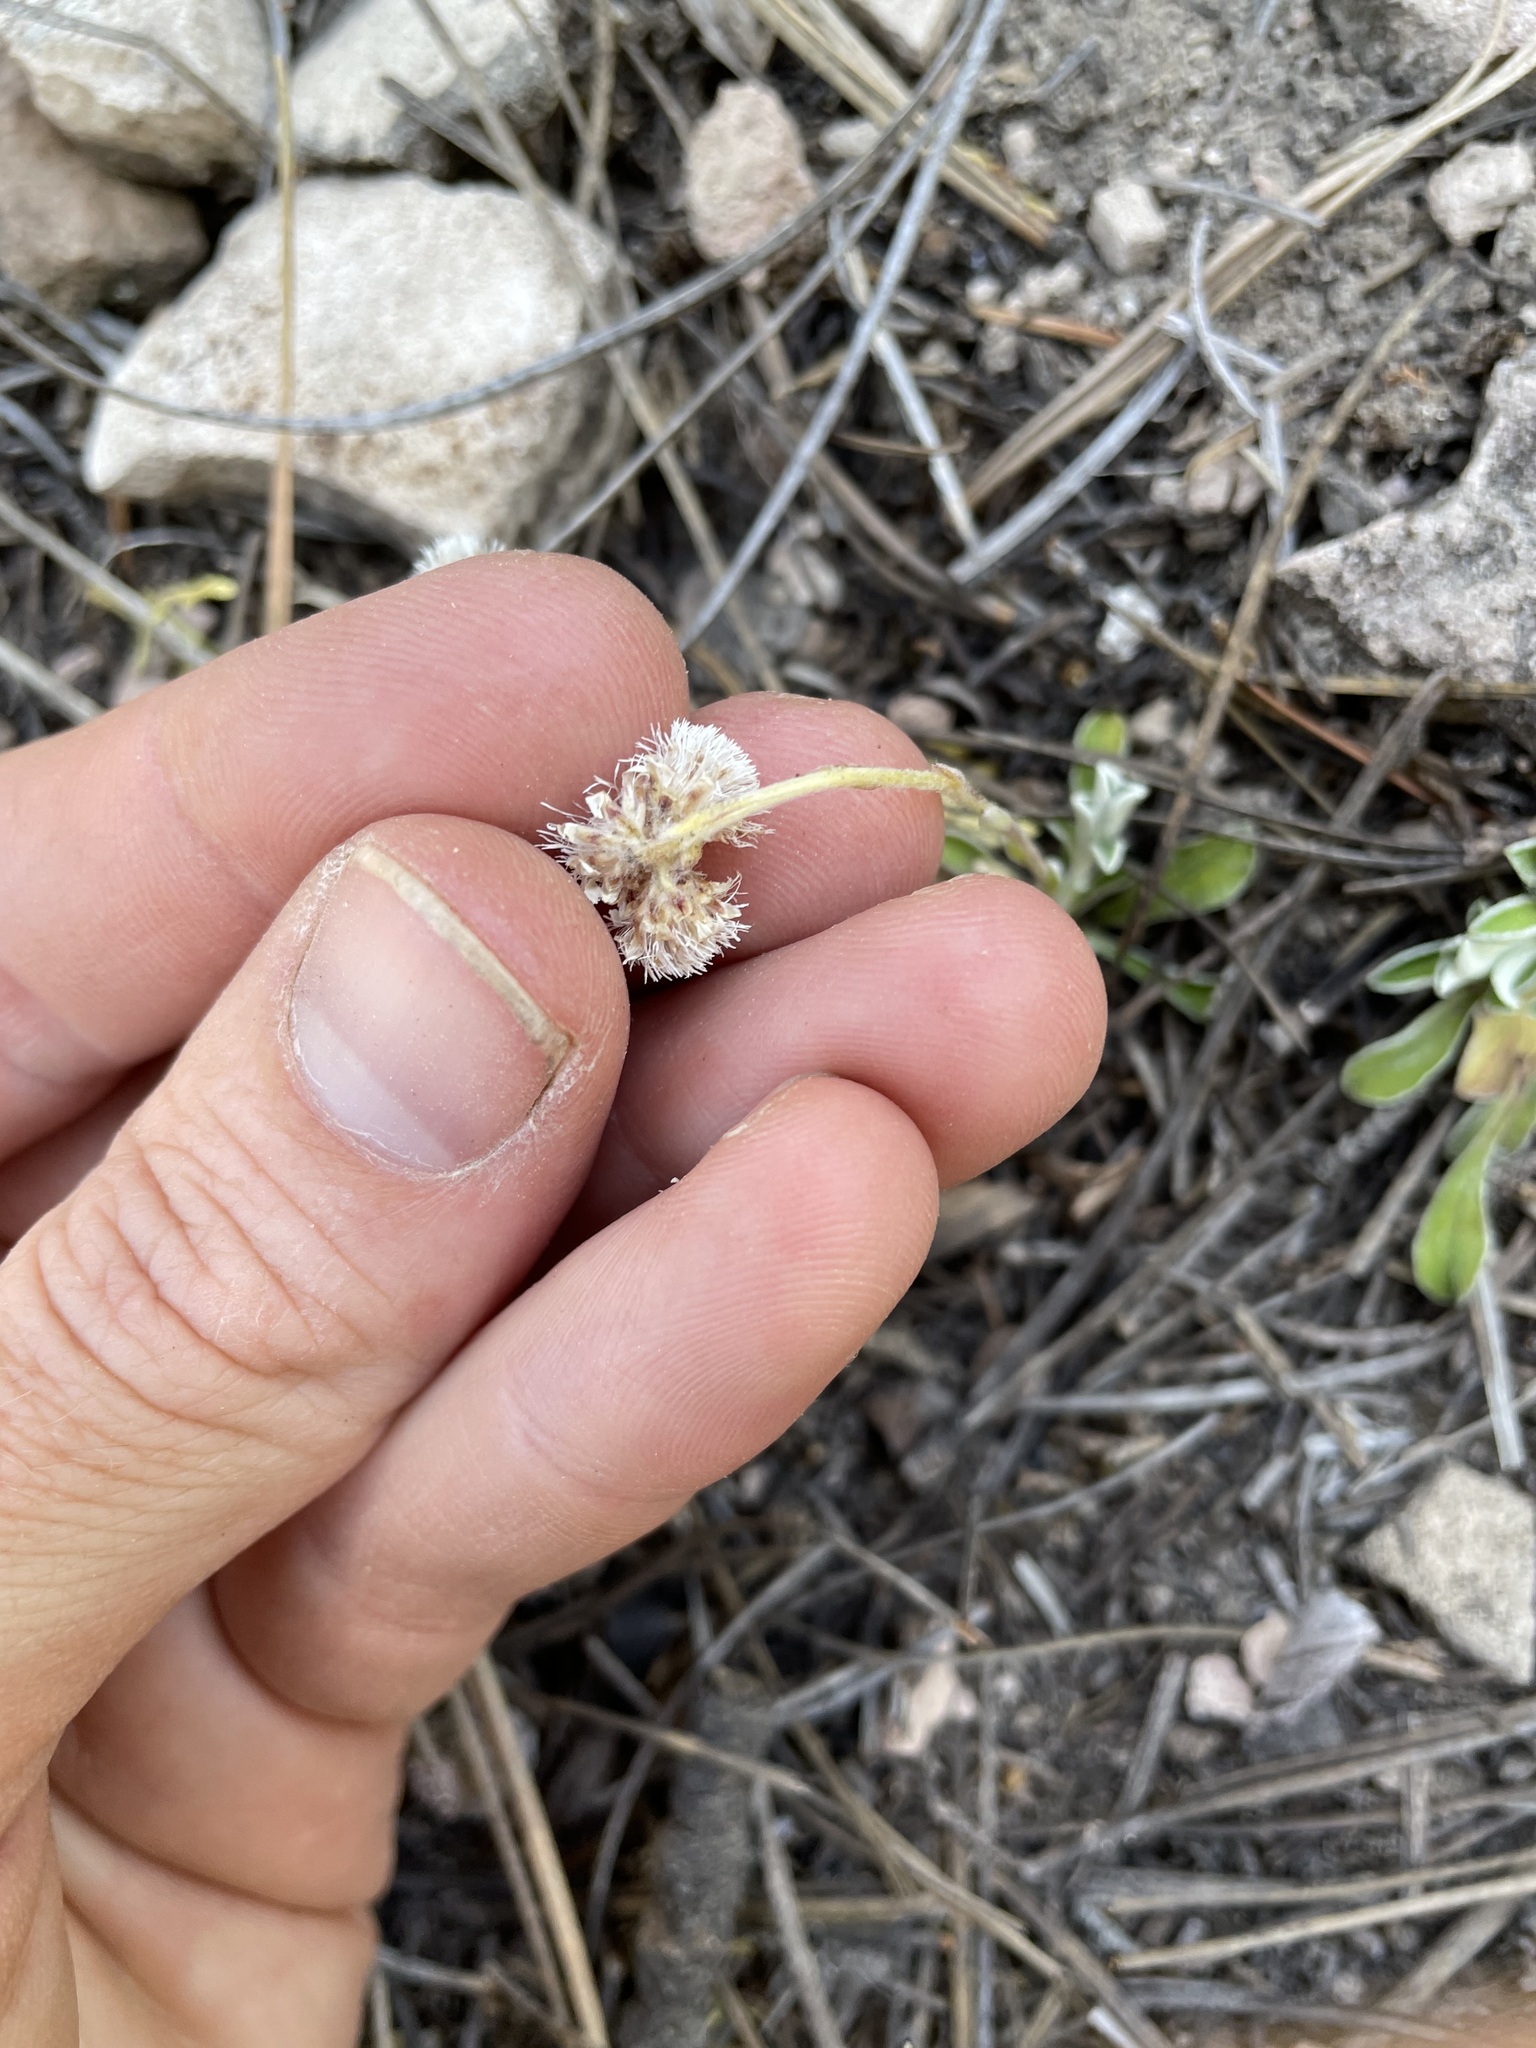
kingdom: Plantae
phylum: Tracheophyta
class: Magnoliopsida
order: Asterales
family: Asteraceae
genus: Antennaria
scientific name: Antennaria marginata
